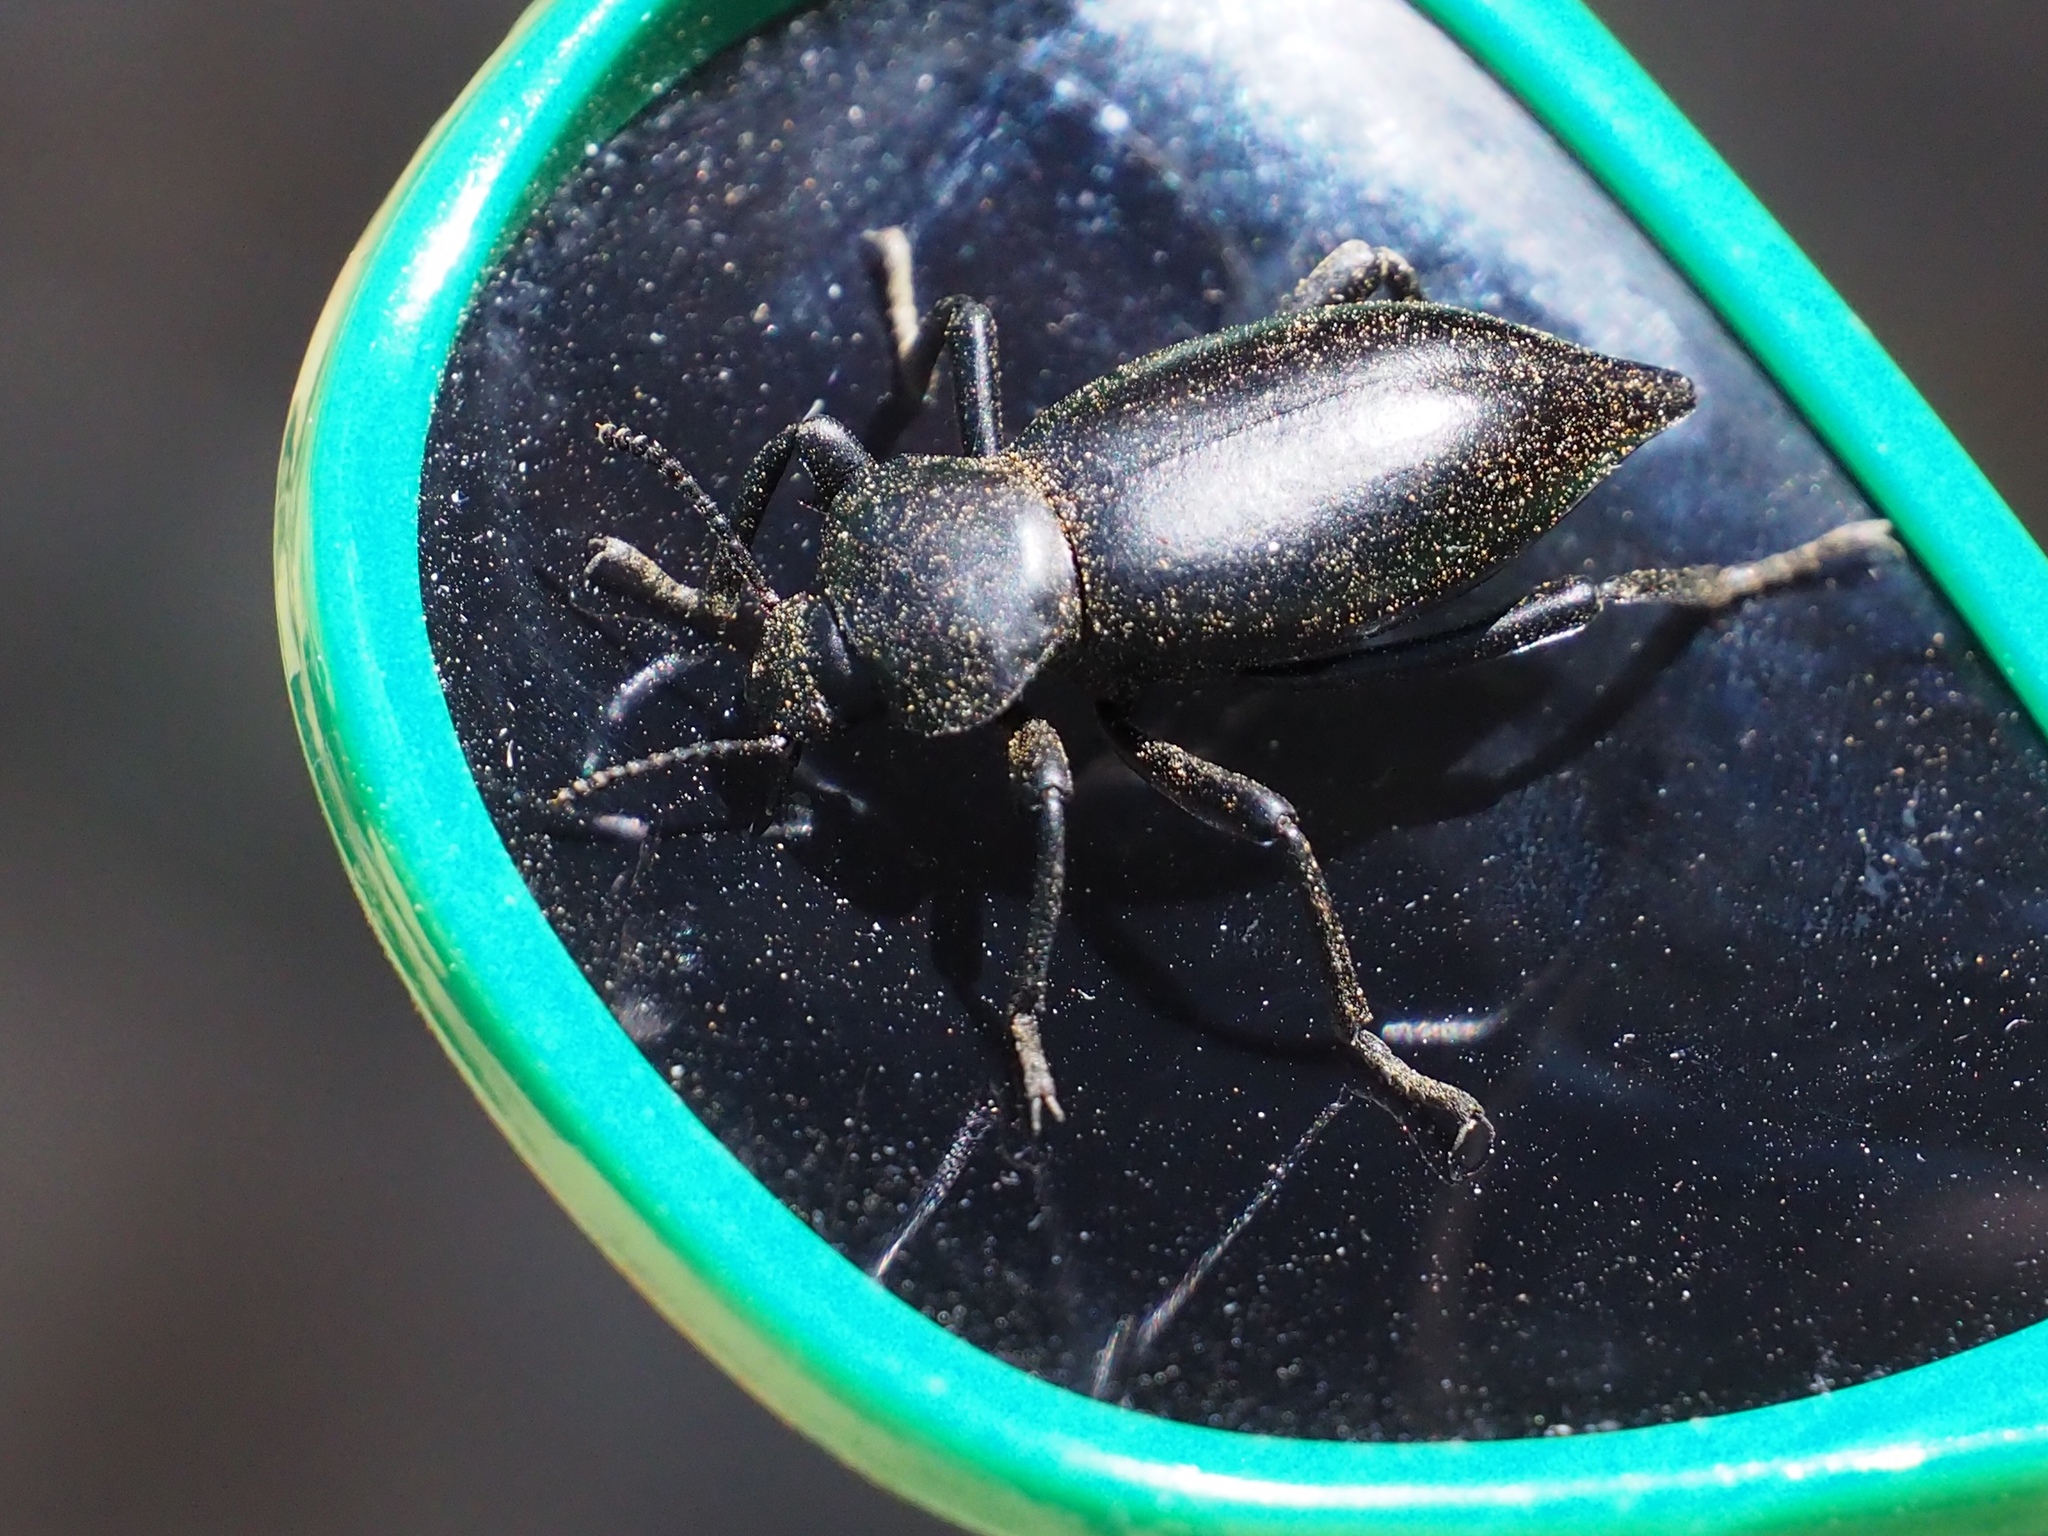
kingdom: Animalia
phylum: Arthropoda
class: Insecta
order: Coleoptera
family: Tenebrionidae
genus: Eleodes
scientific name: Eleodes acuticauda
